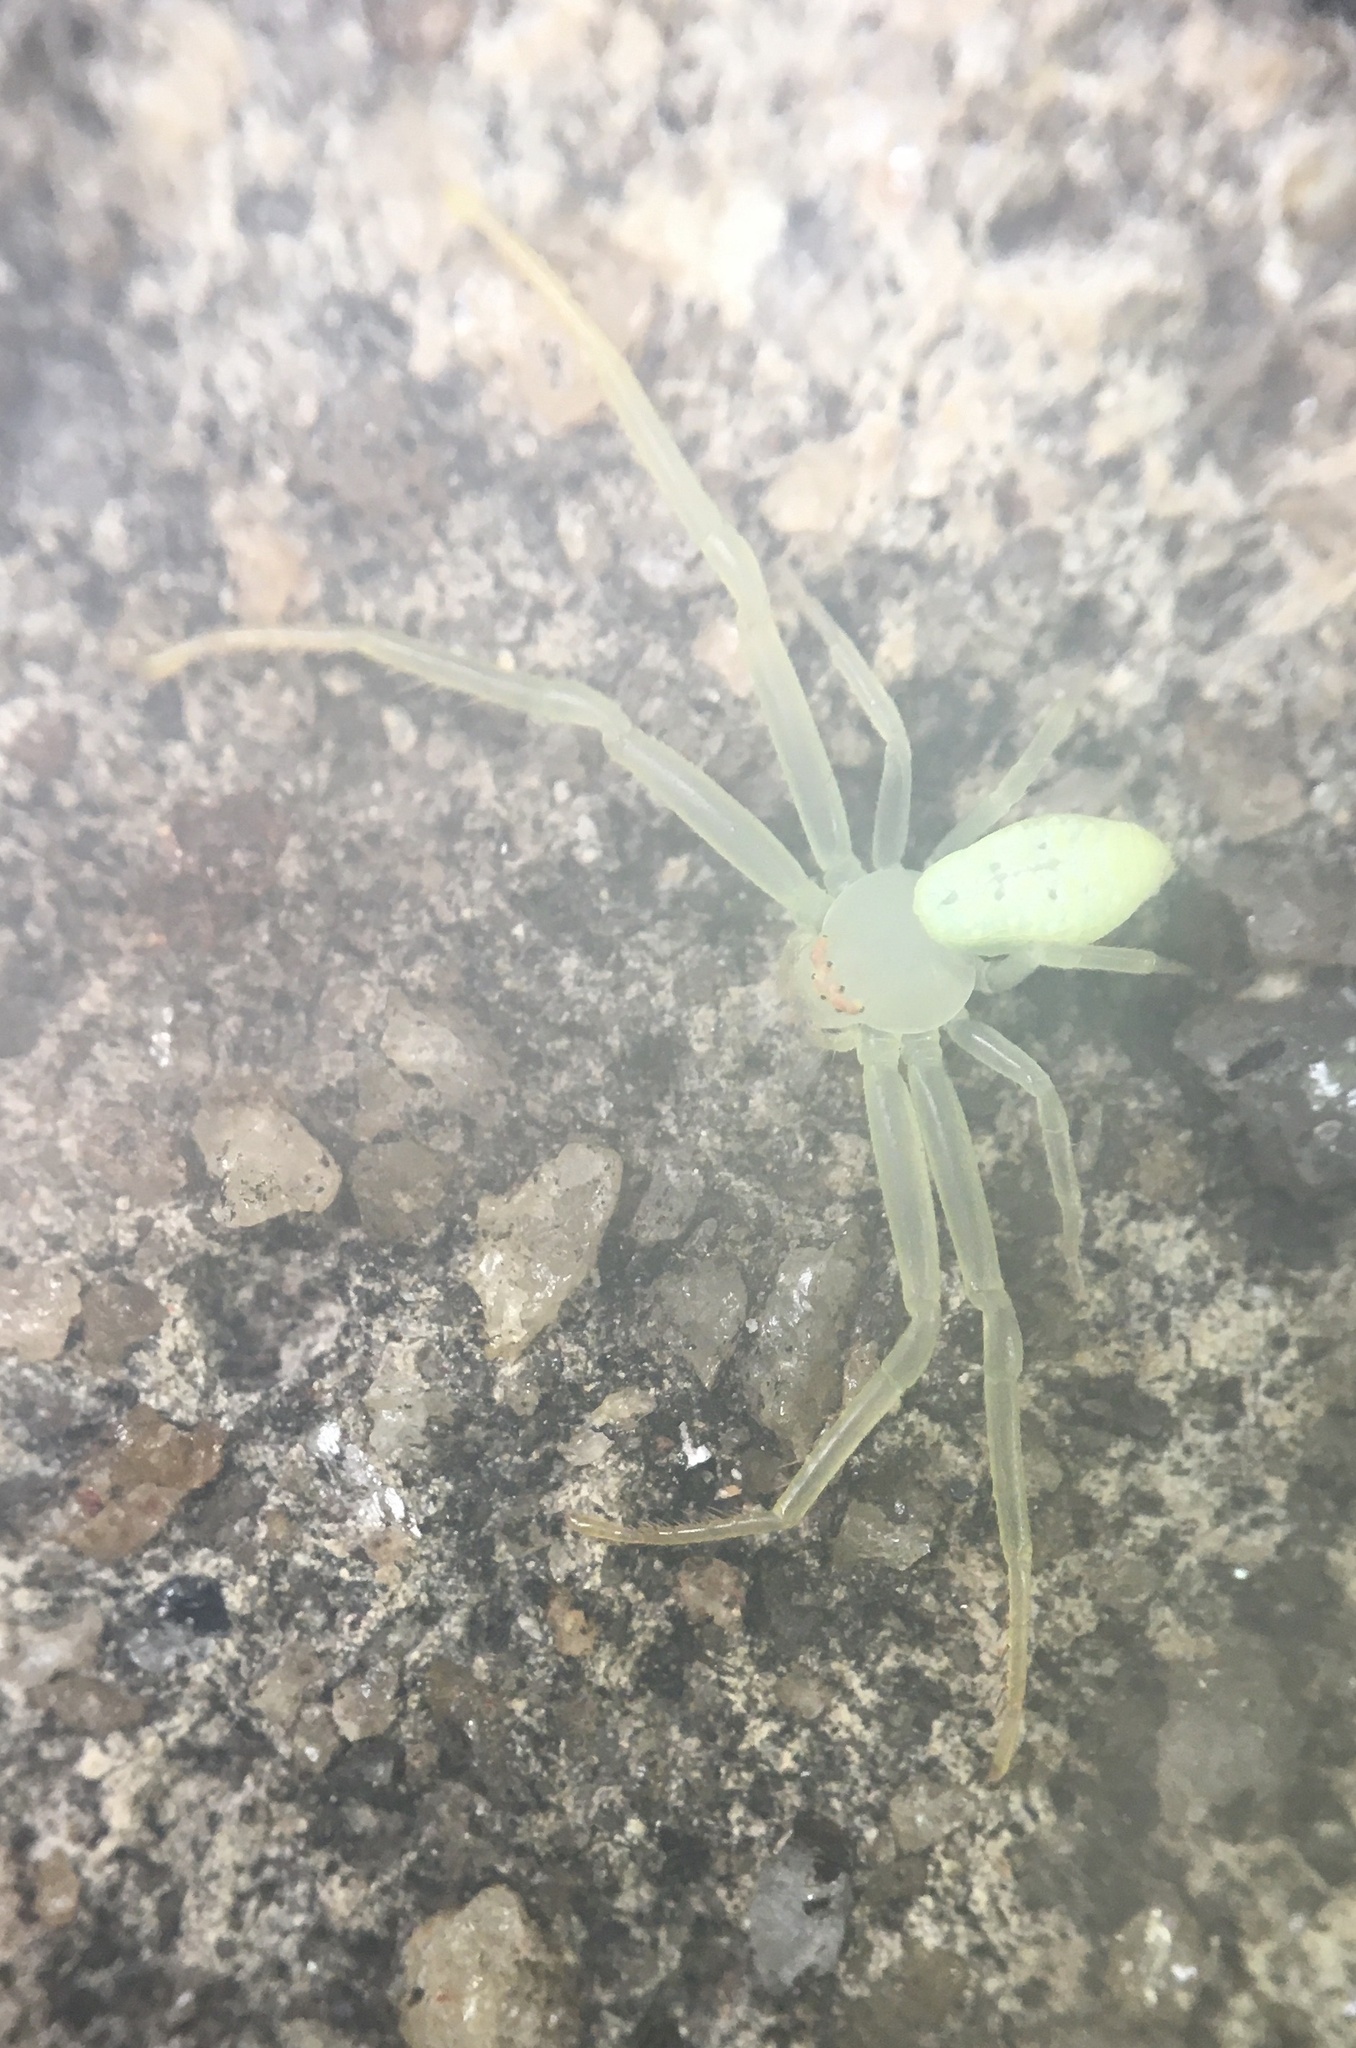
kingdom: Animalia
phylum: Arthropoda
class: Arachnida
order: Araneae
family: Thomisidae
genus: Misumessus
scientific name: Misumessus oblongus
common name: American green crab spider
